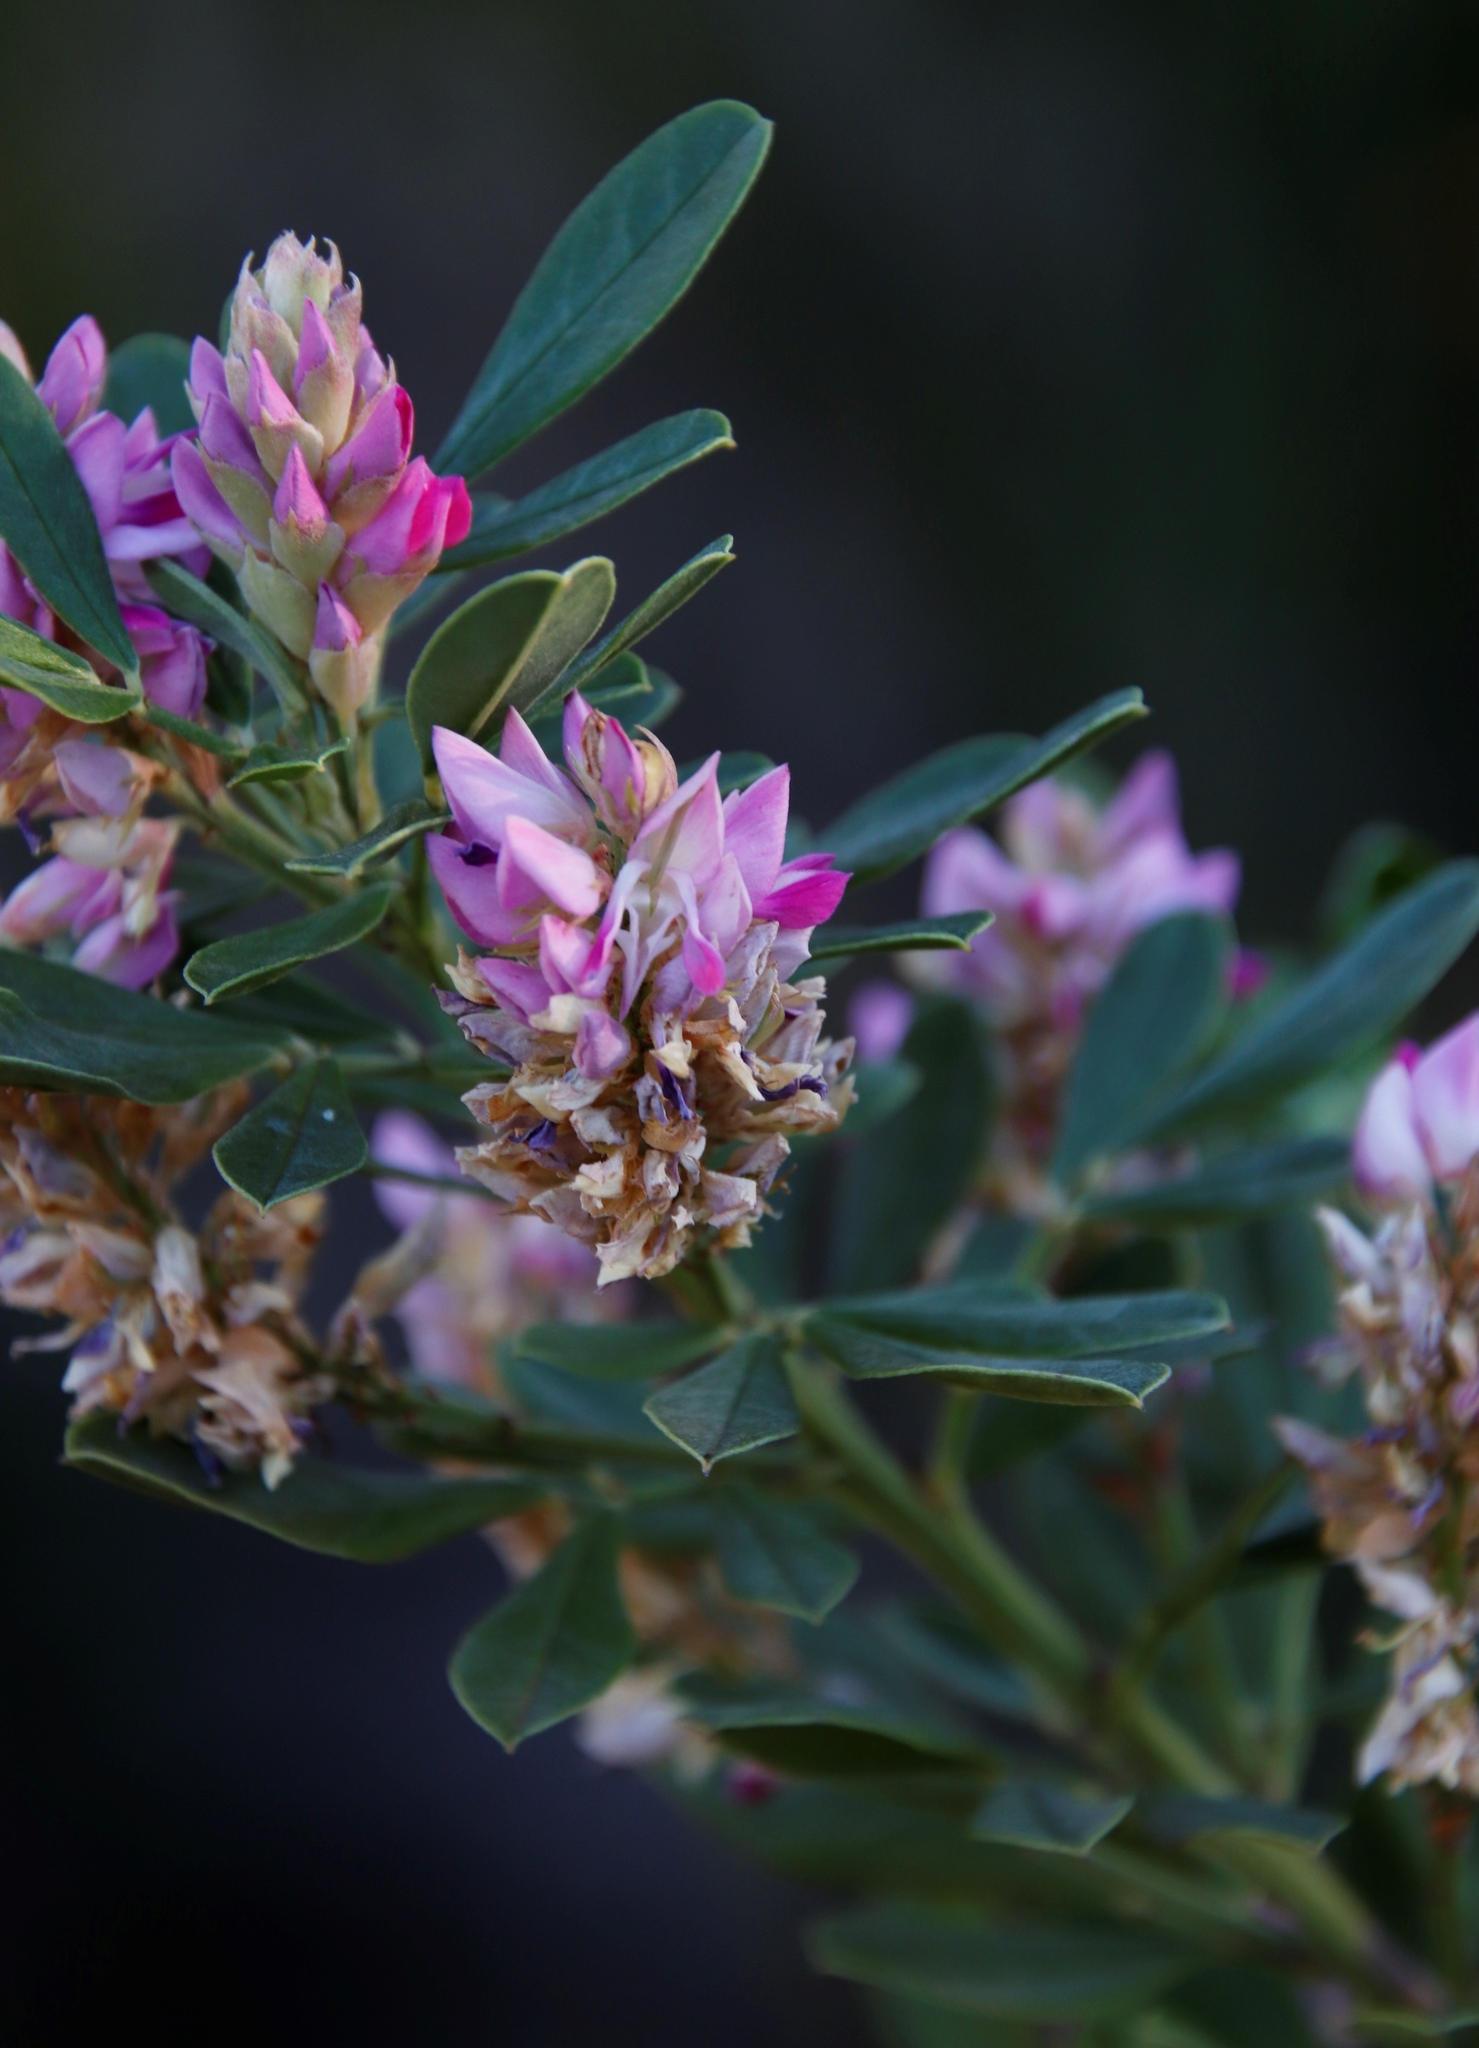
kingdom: Plantae
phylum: Tracheophyta
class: Magnoliopsida
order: Fabales
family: Fabaceae
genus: Indigofera
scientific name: Indigofera cytisoides
